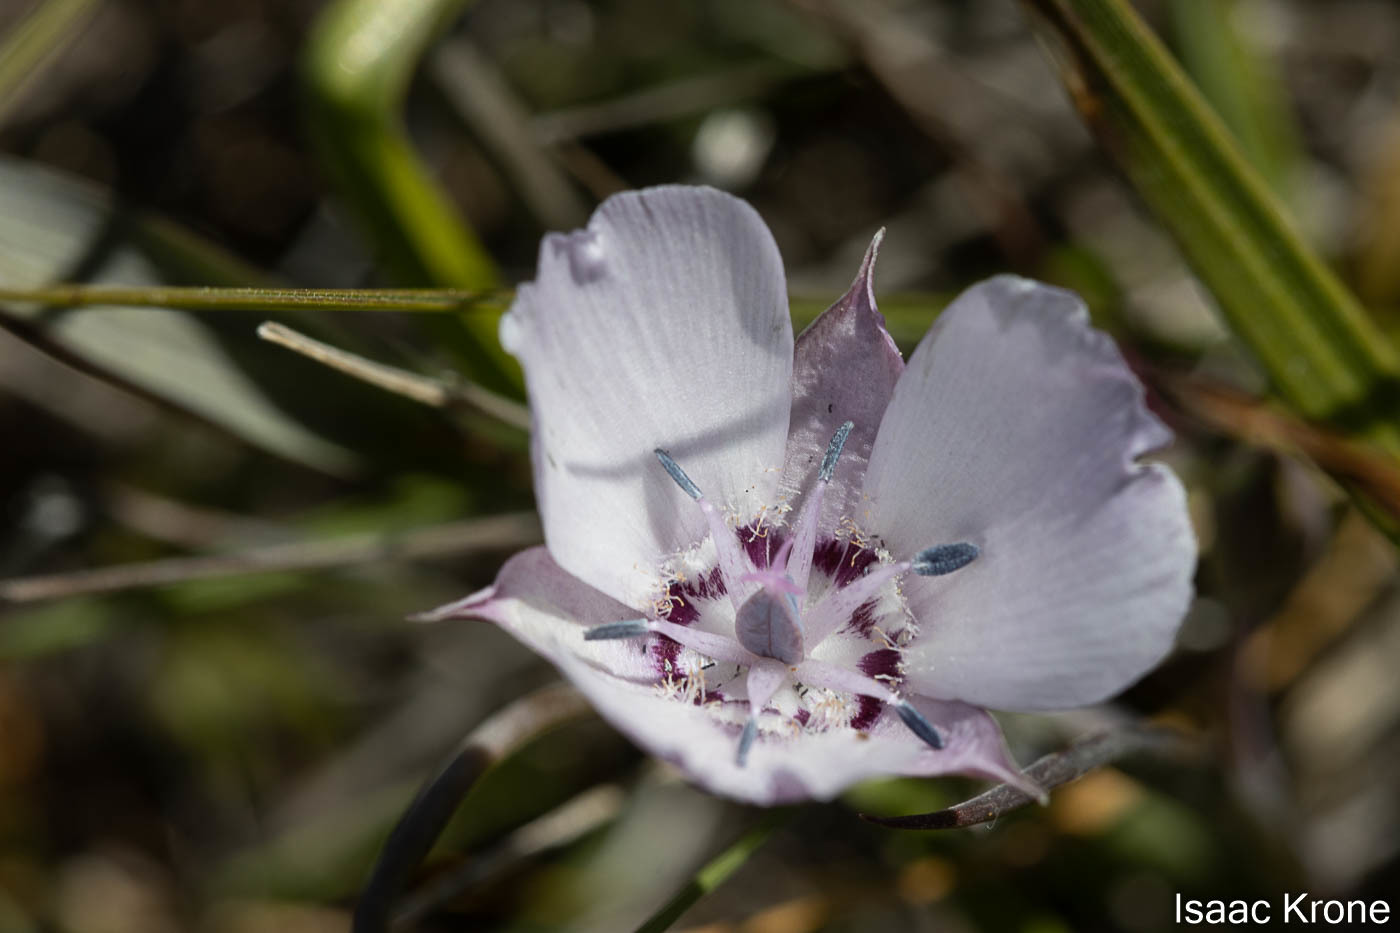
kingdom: Plantae
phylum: Tracheophyta
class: Liliopsida
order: Liliales
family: Liliaceae
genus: Calochortus
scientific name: Calochortus umbellatus
